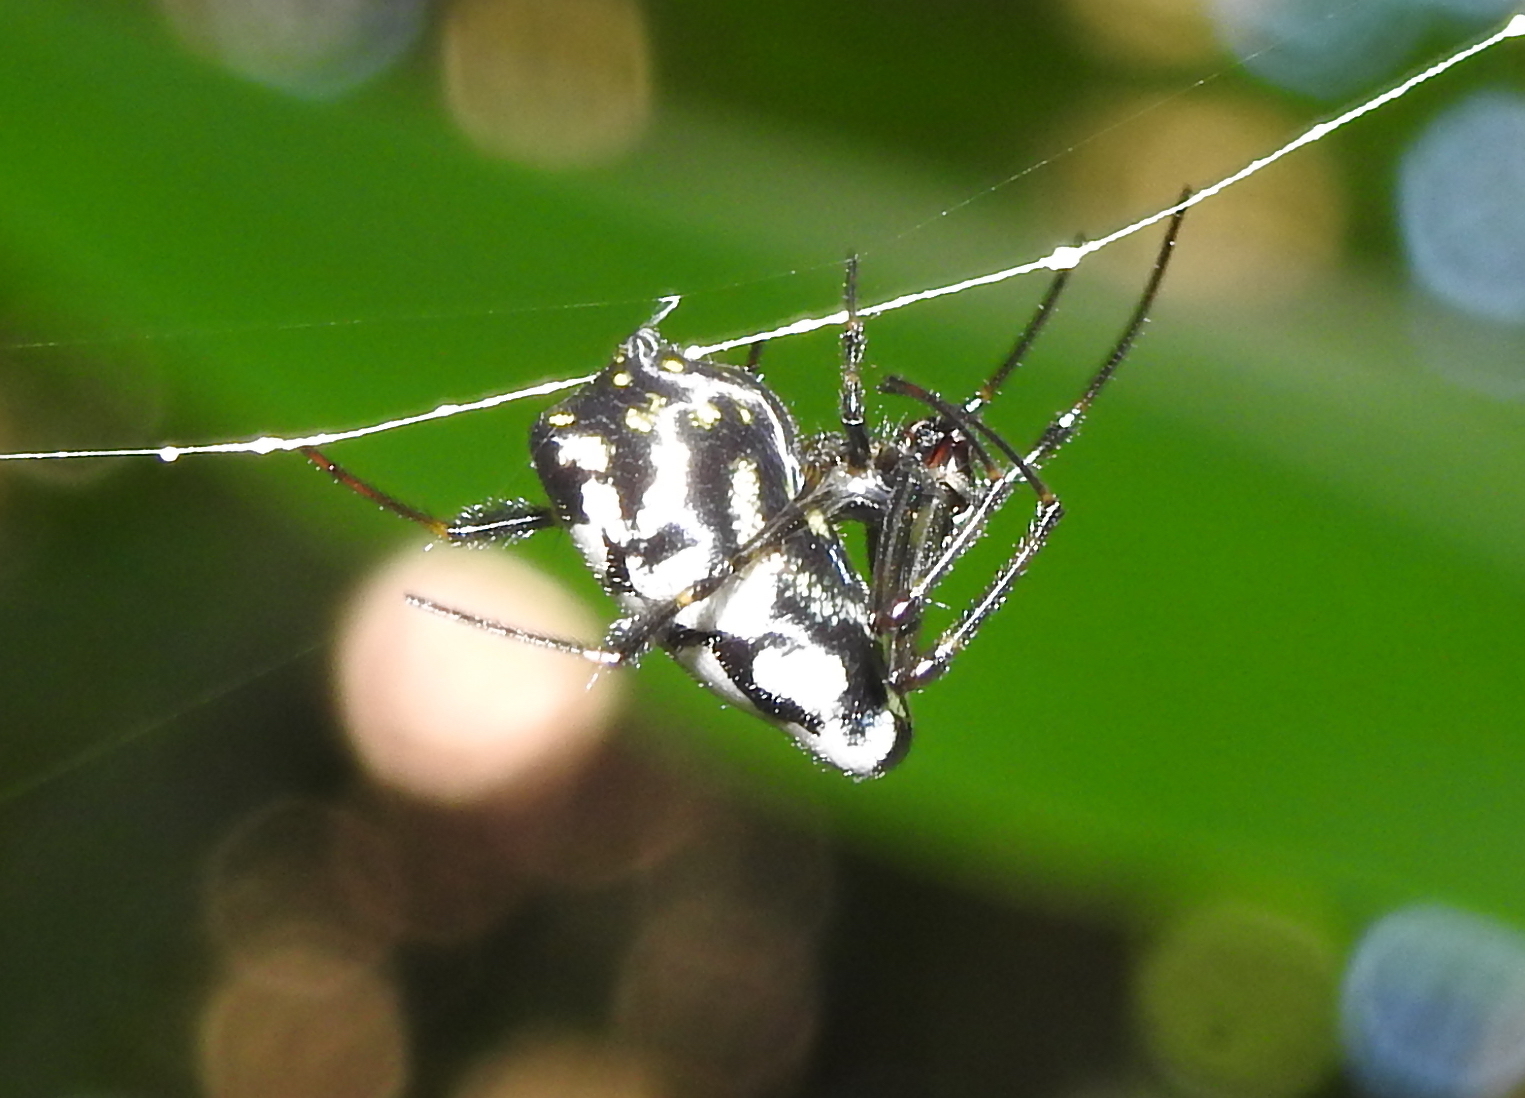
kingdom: Animalia
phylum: Arthropoda
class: Arachnida
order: Araneae
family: Tetragnathidae
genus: Leucauge
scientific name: Leucauge fastigata
